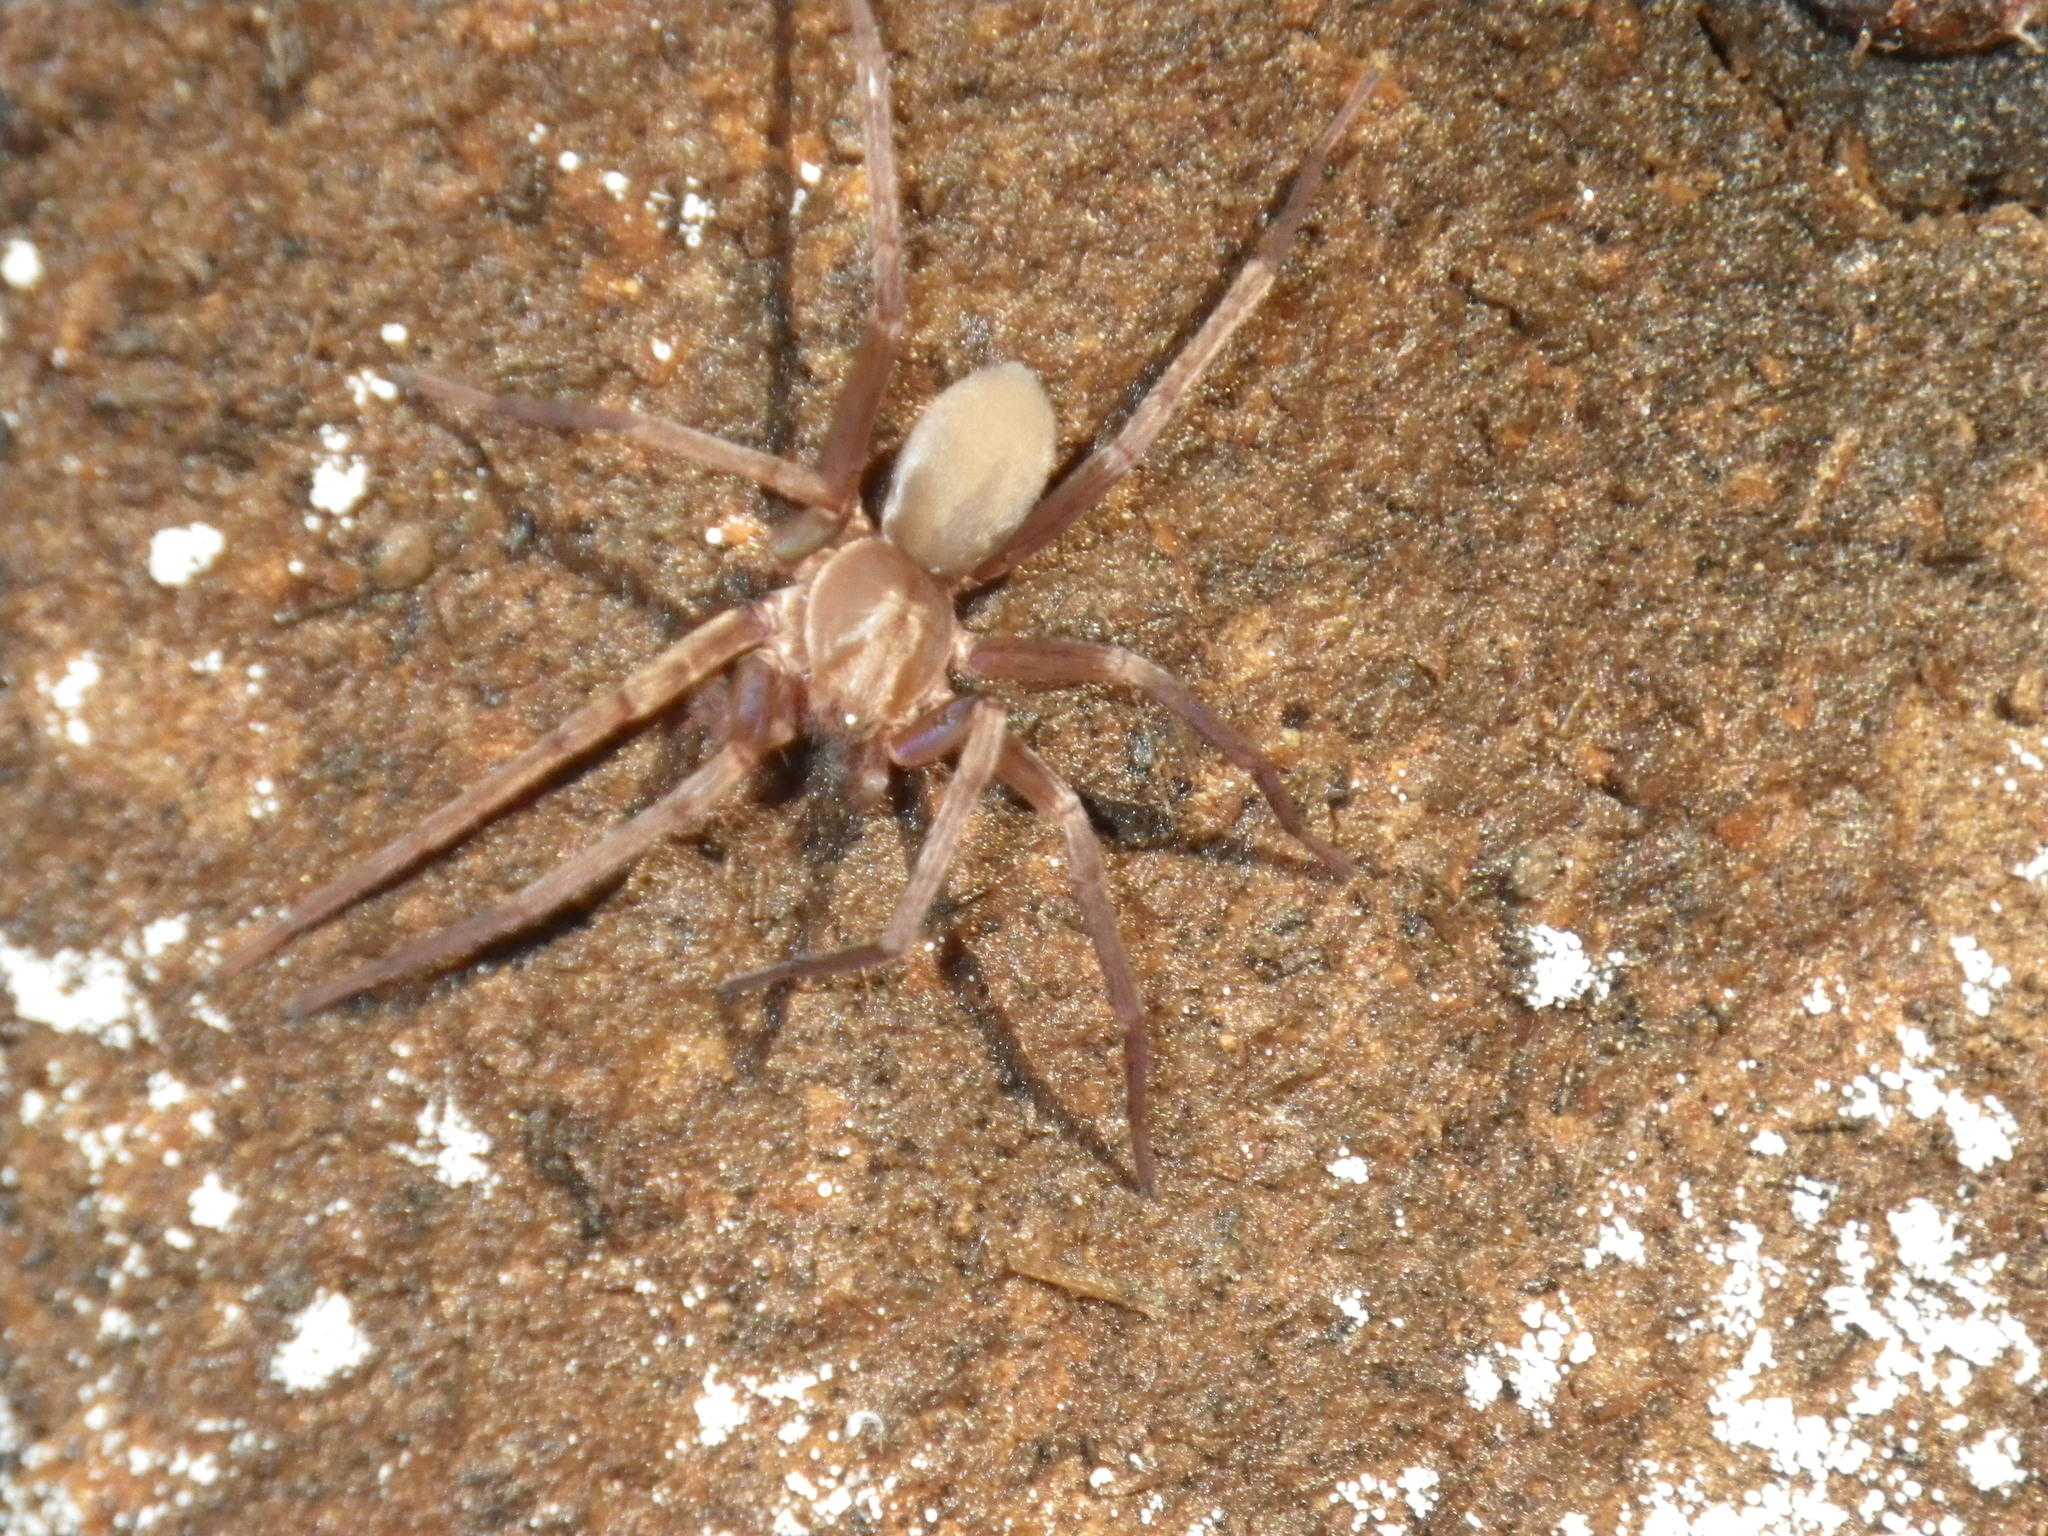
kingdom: Animalia
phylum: Arthropoda
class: Arachnida
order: Araneae
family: Zoropsidae
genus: Titiotus
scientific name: Titiotus
